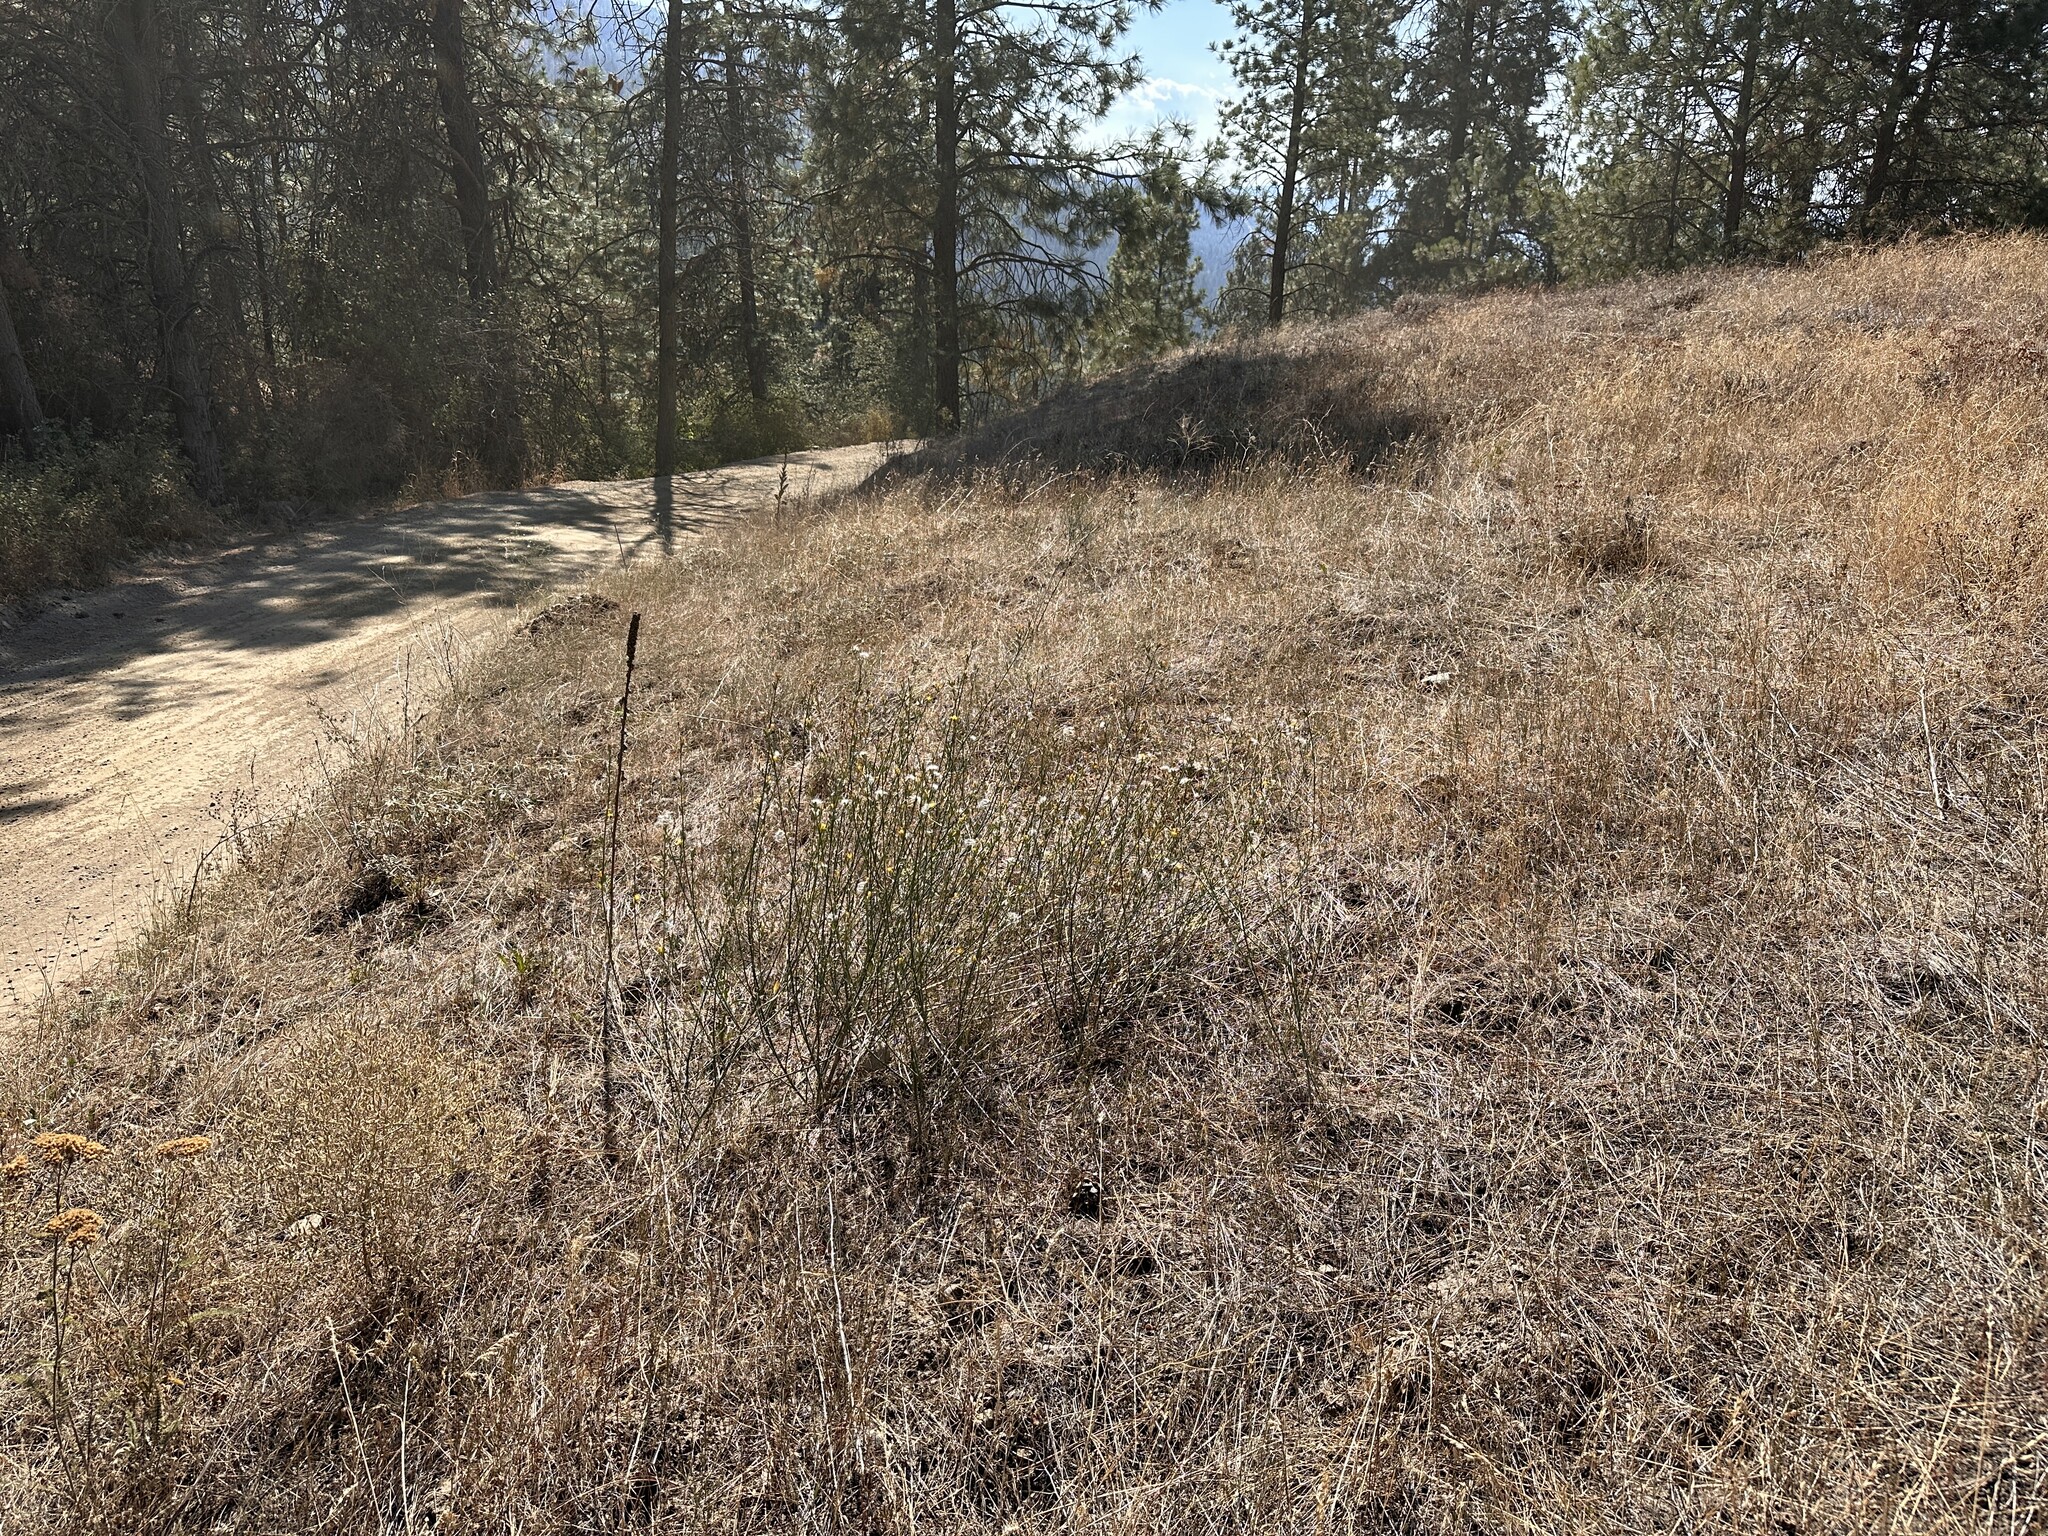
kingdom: Plantae
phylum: Tracheophyta
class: Magnoliopsida
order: Asterales
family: Asteraceae
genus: Chondrilla
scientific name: Chondrilla juncea
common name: Skeleton weed
